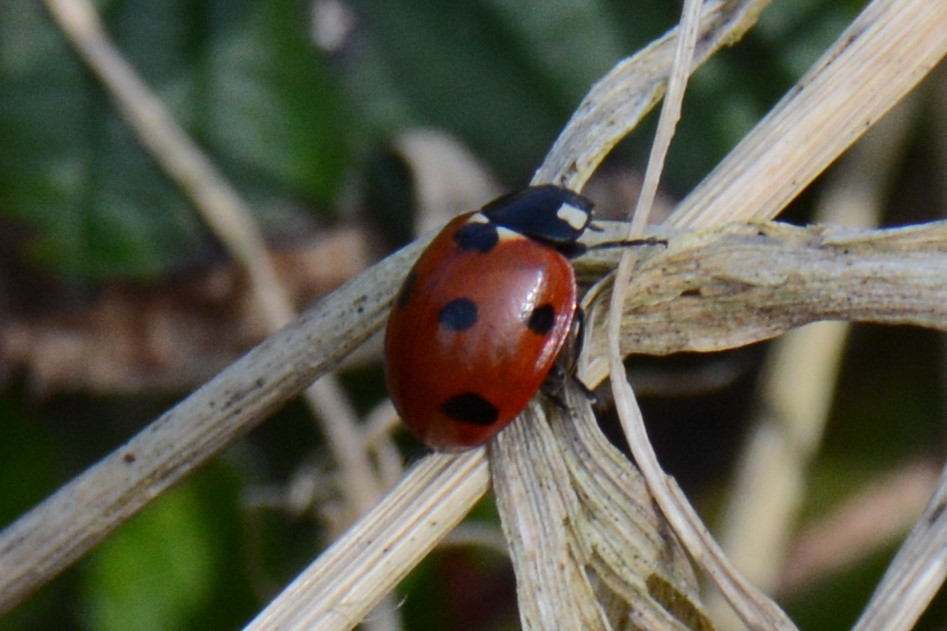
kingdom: Animalia
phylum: Arthropoda
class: Insecta
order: Coleoptera
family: Coccinellidae
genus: Coccinella
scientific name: Coccinella septempunctata
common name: Sevenspotted lady beetle
